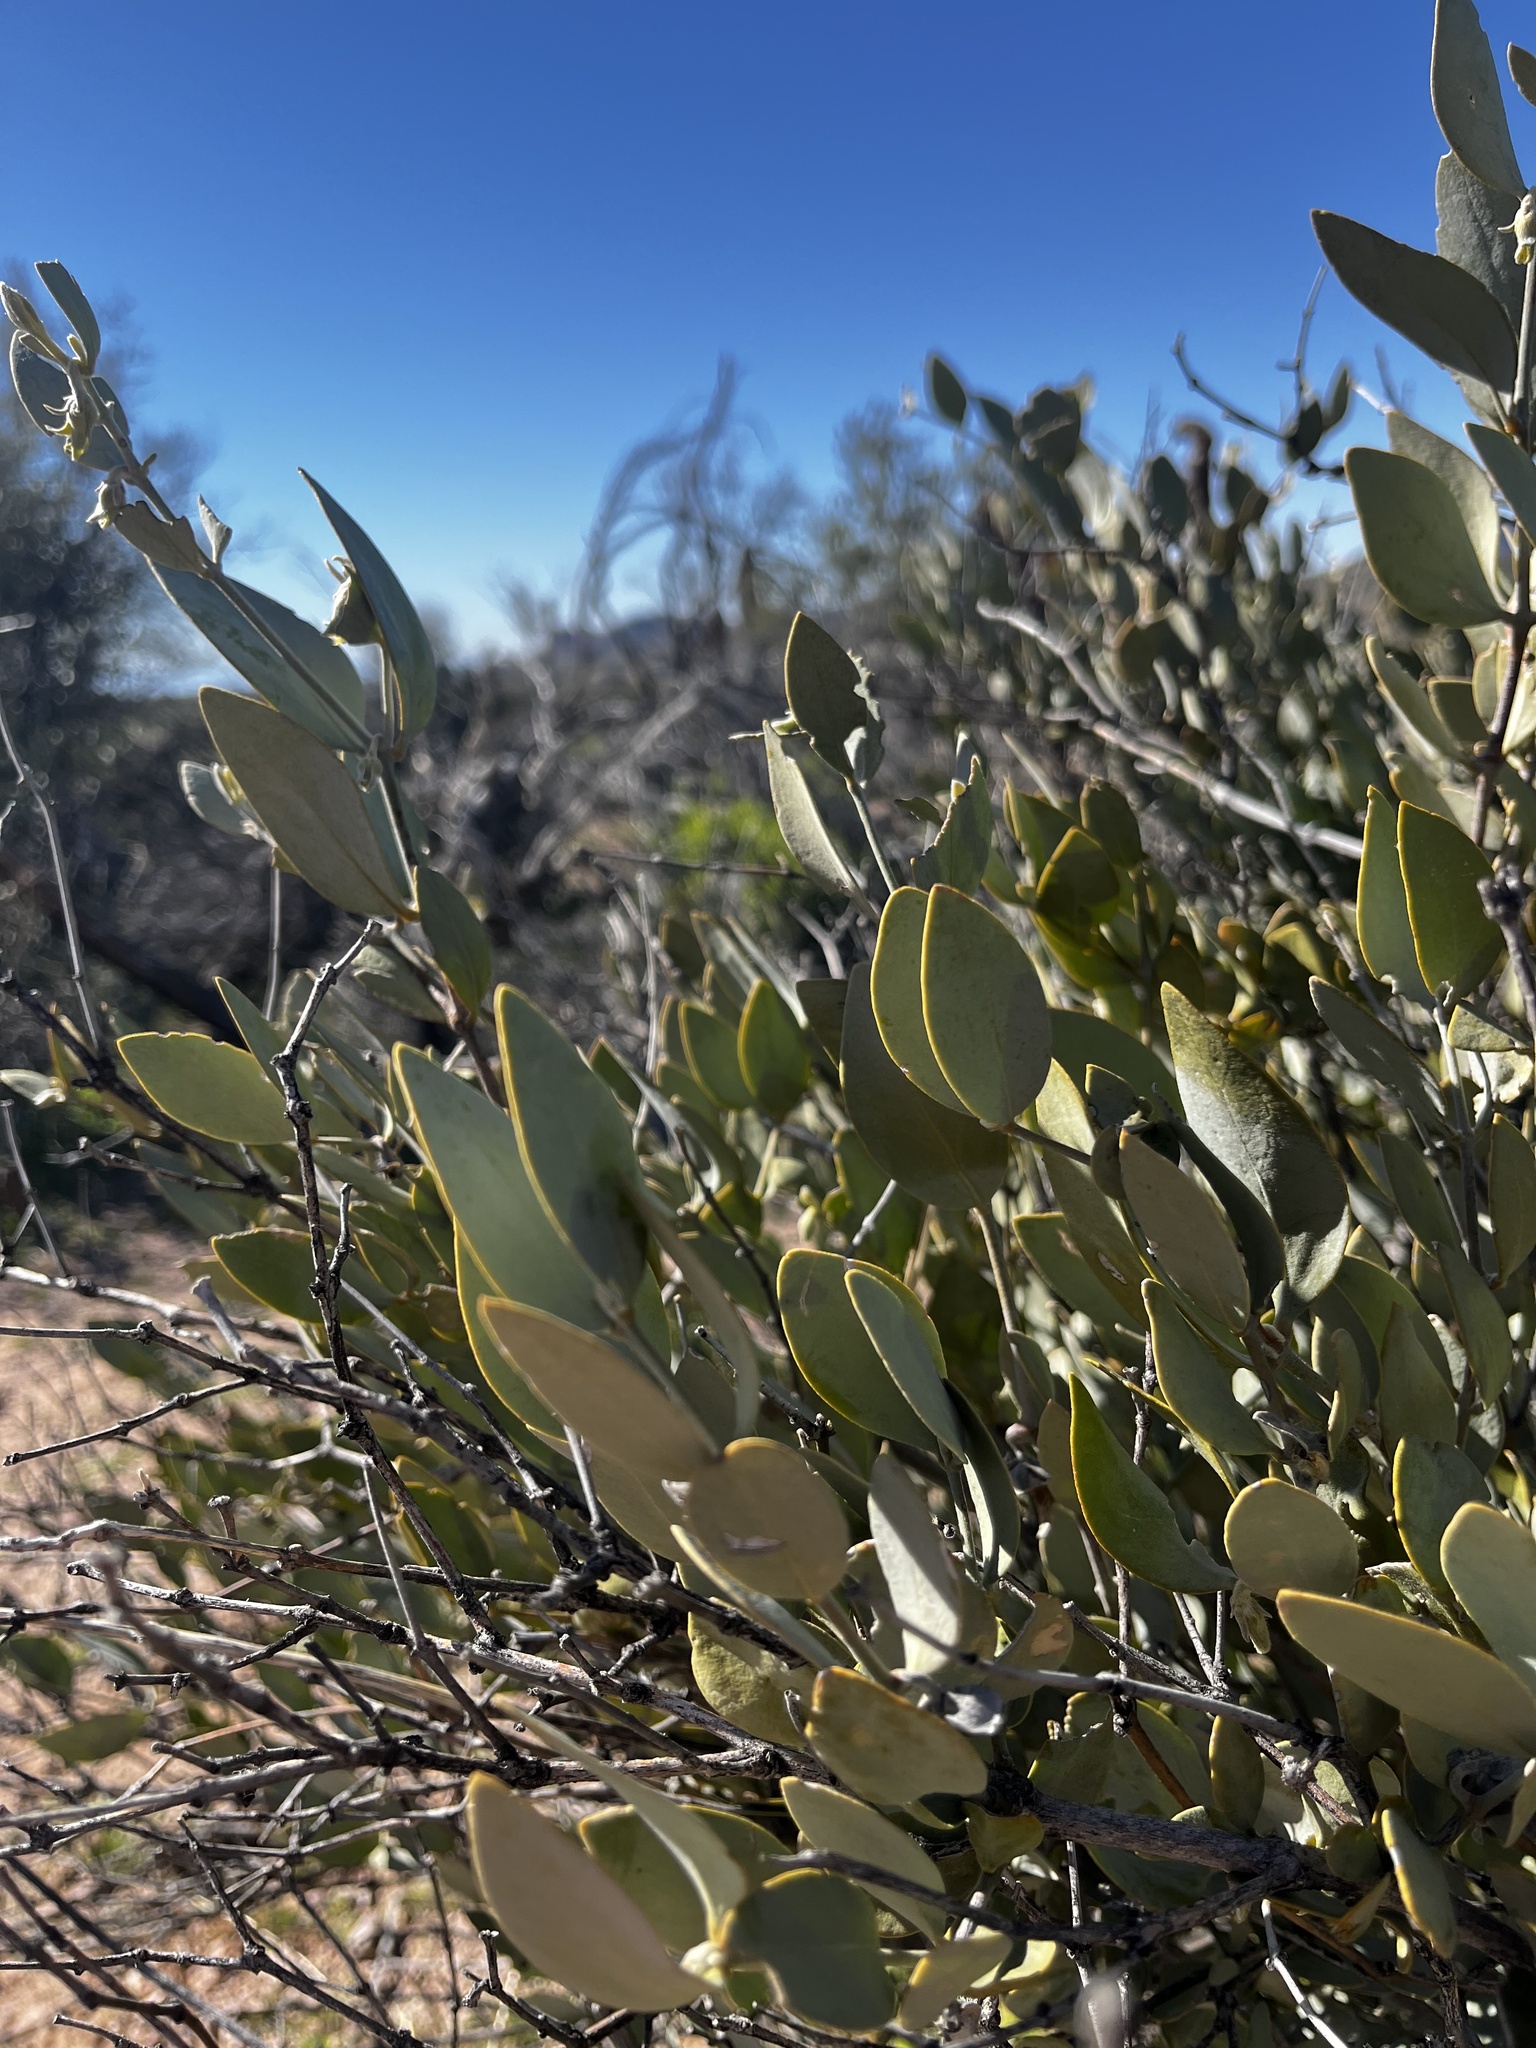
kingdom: Plantae
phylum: Tracheophyta
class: Magnoliopsida
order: Caryophyllales
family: Simmondsiaceae
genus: Simmondsia
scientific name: Simmondsia chinensis
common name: Jojoba
